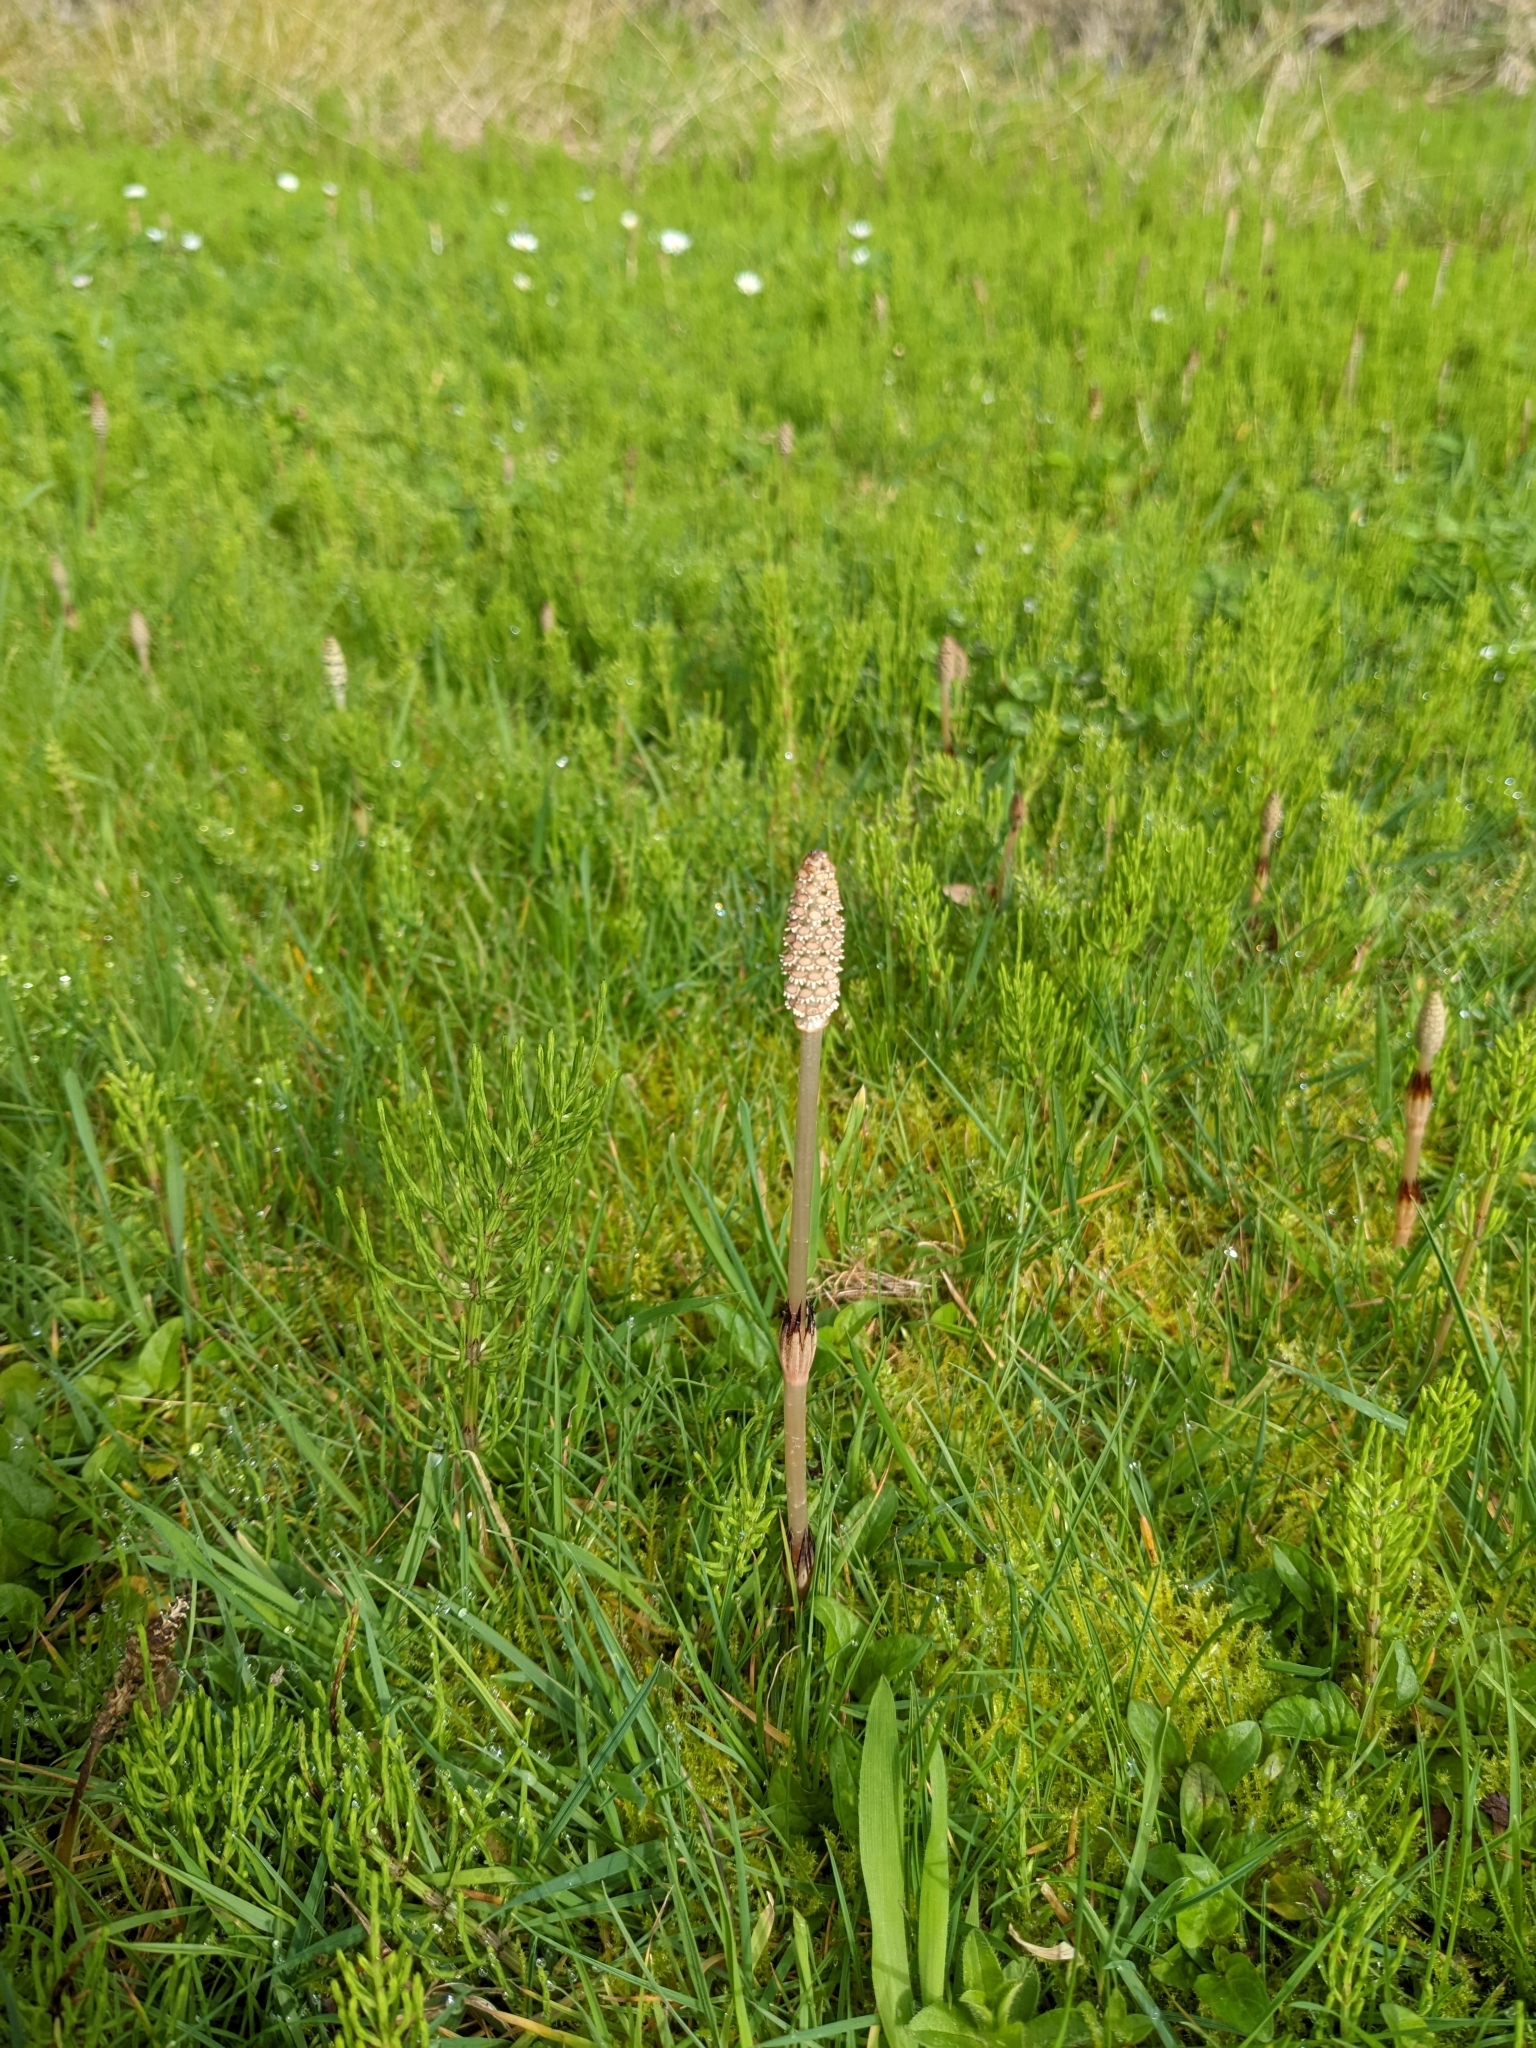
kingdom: Plantae
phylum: Tracheophyta
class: Polypodiopsida
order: Equisetales
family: Equisetaceae
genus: Equisetum
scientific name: Equisetum arvense
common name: Field horsetail
